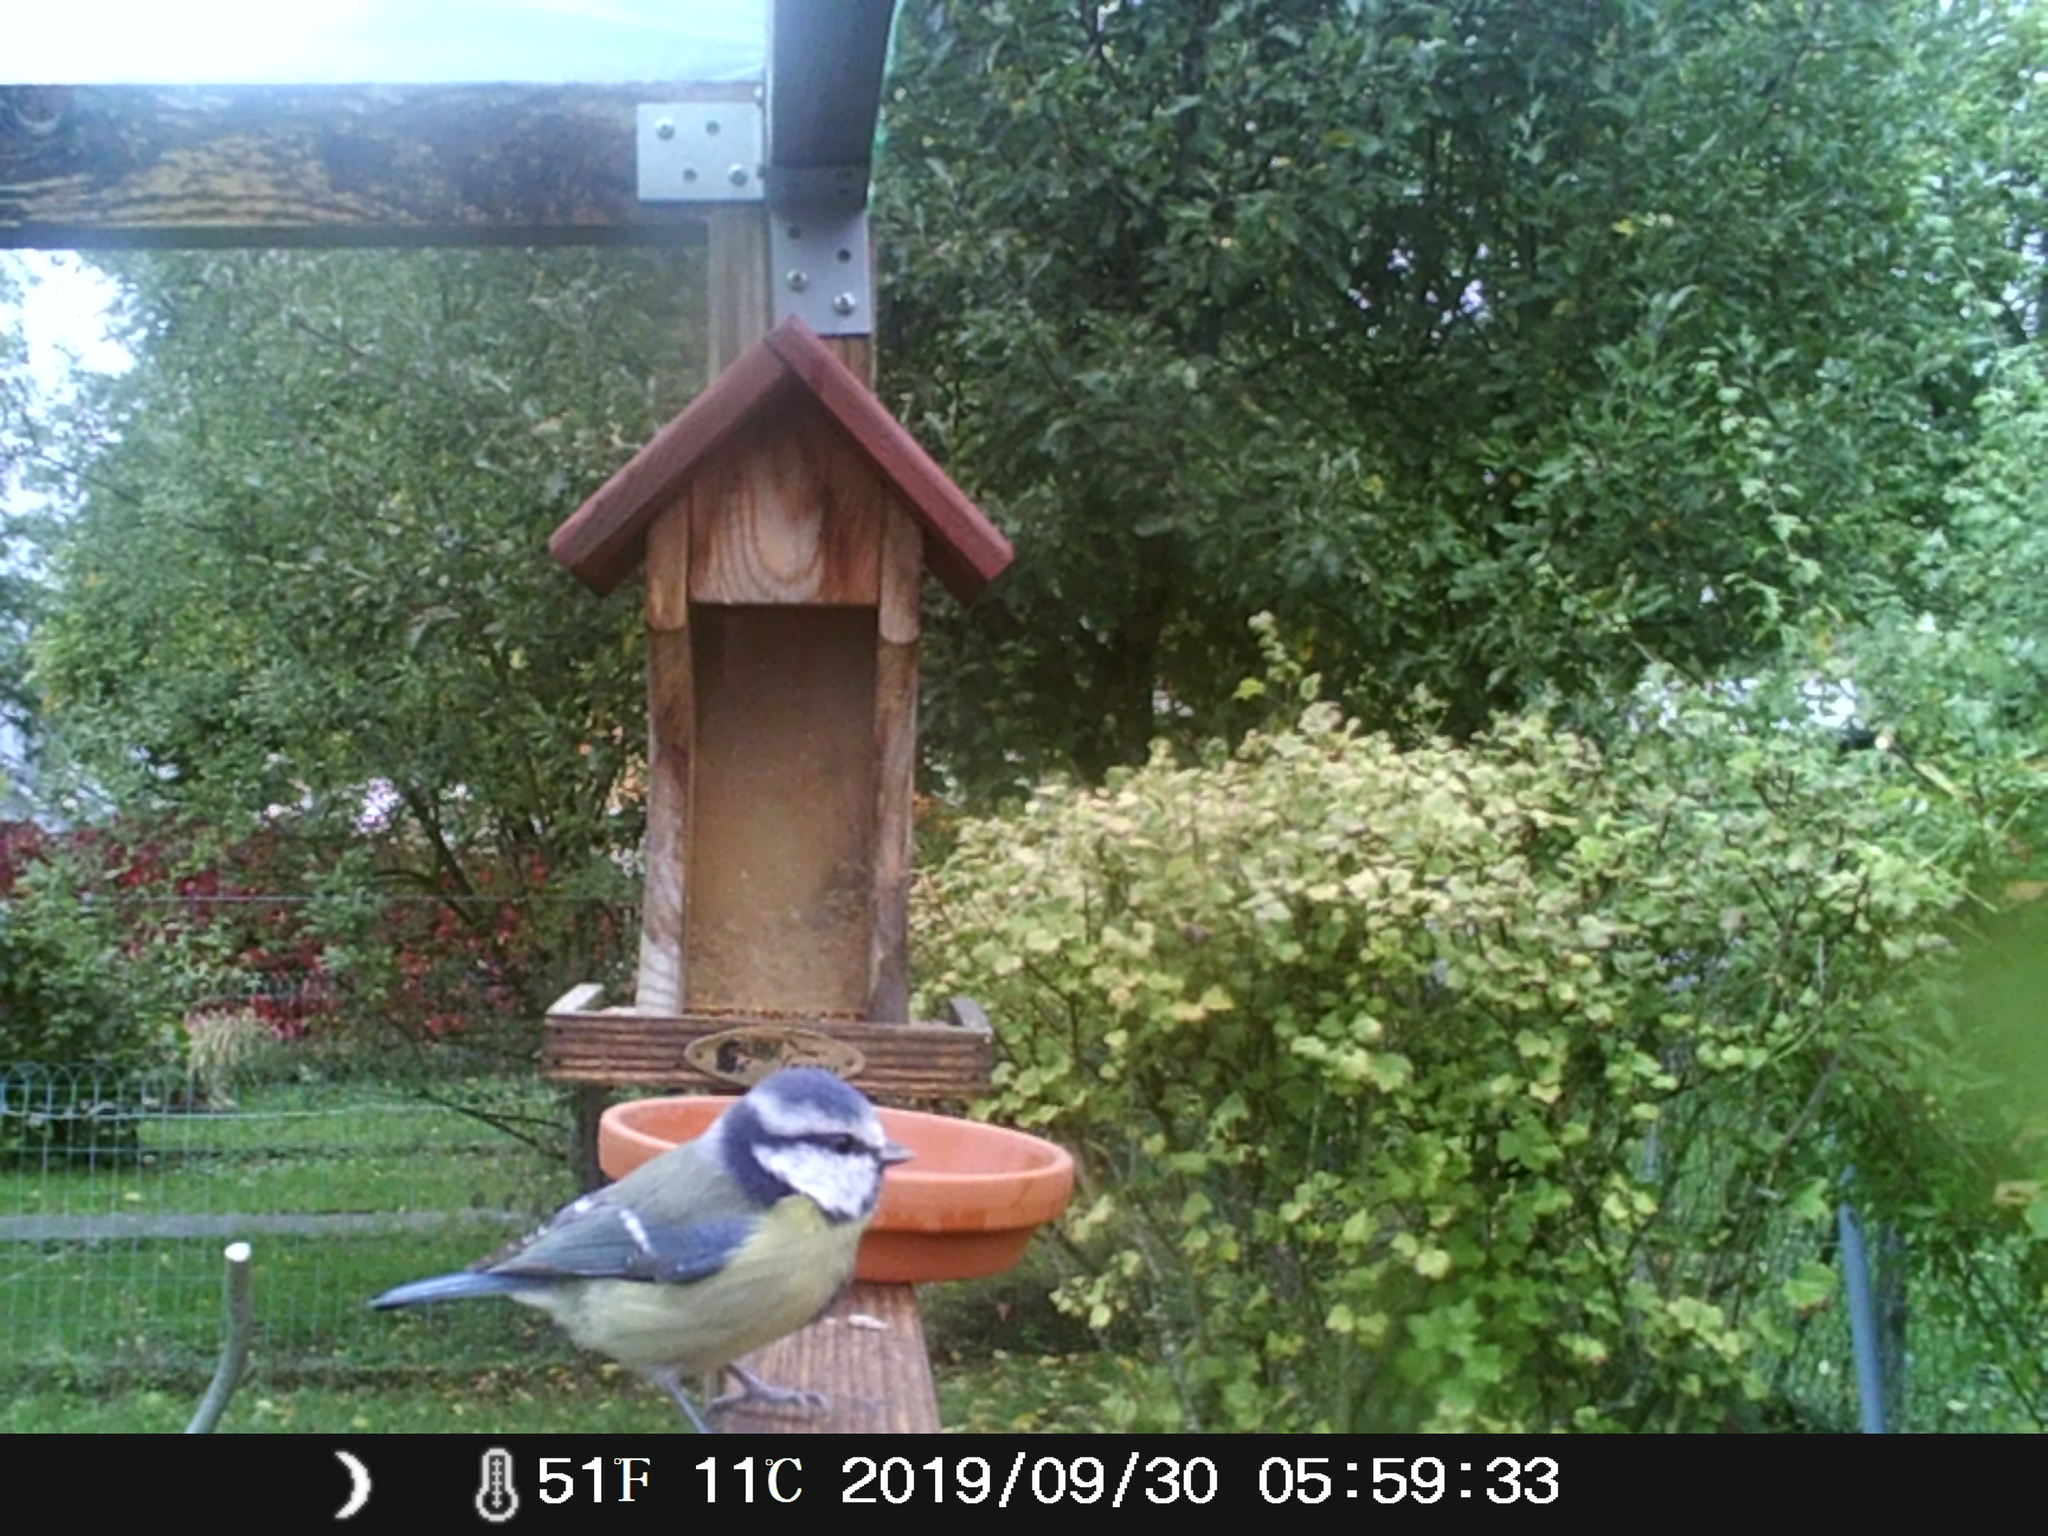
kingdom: Animalia
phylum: Chordata
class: Aves
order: Passeriformes
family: Paridae
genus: Cyanistes
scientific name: Cyanistes caeruleus
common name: Eurasian blue tit
